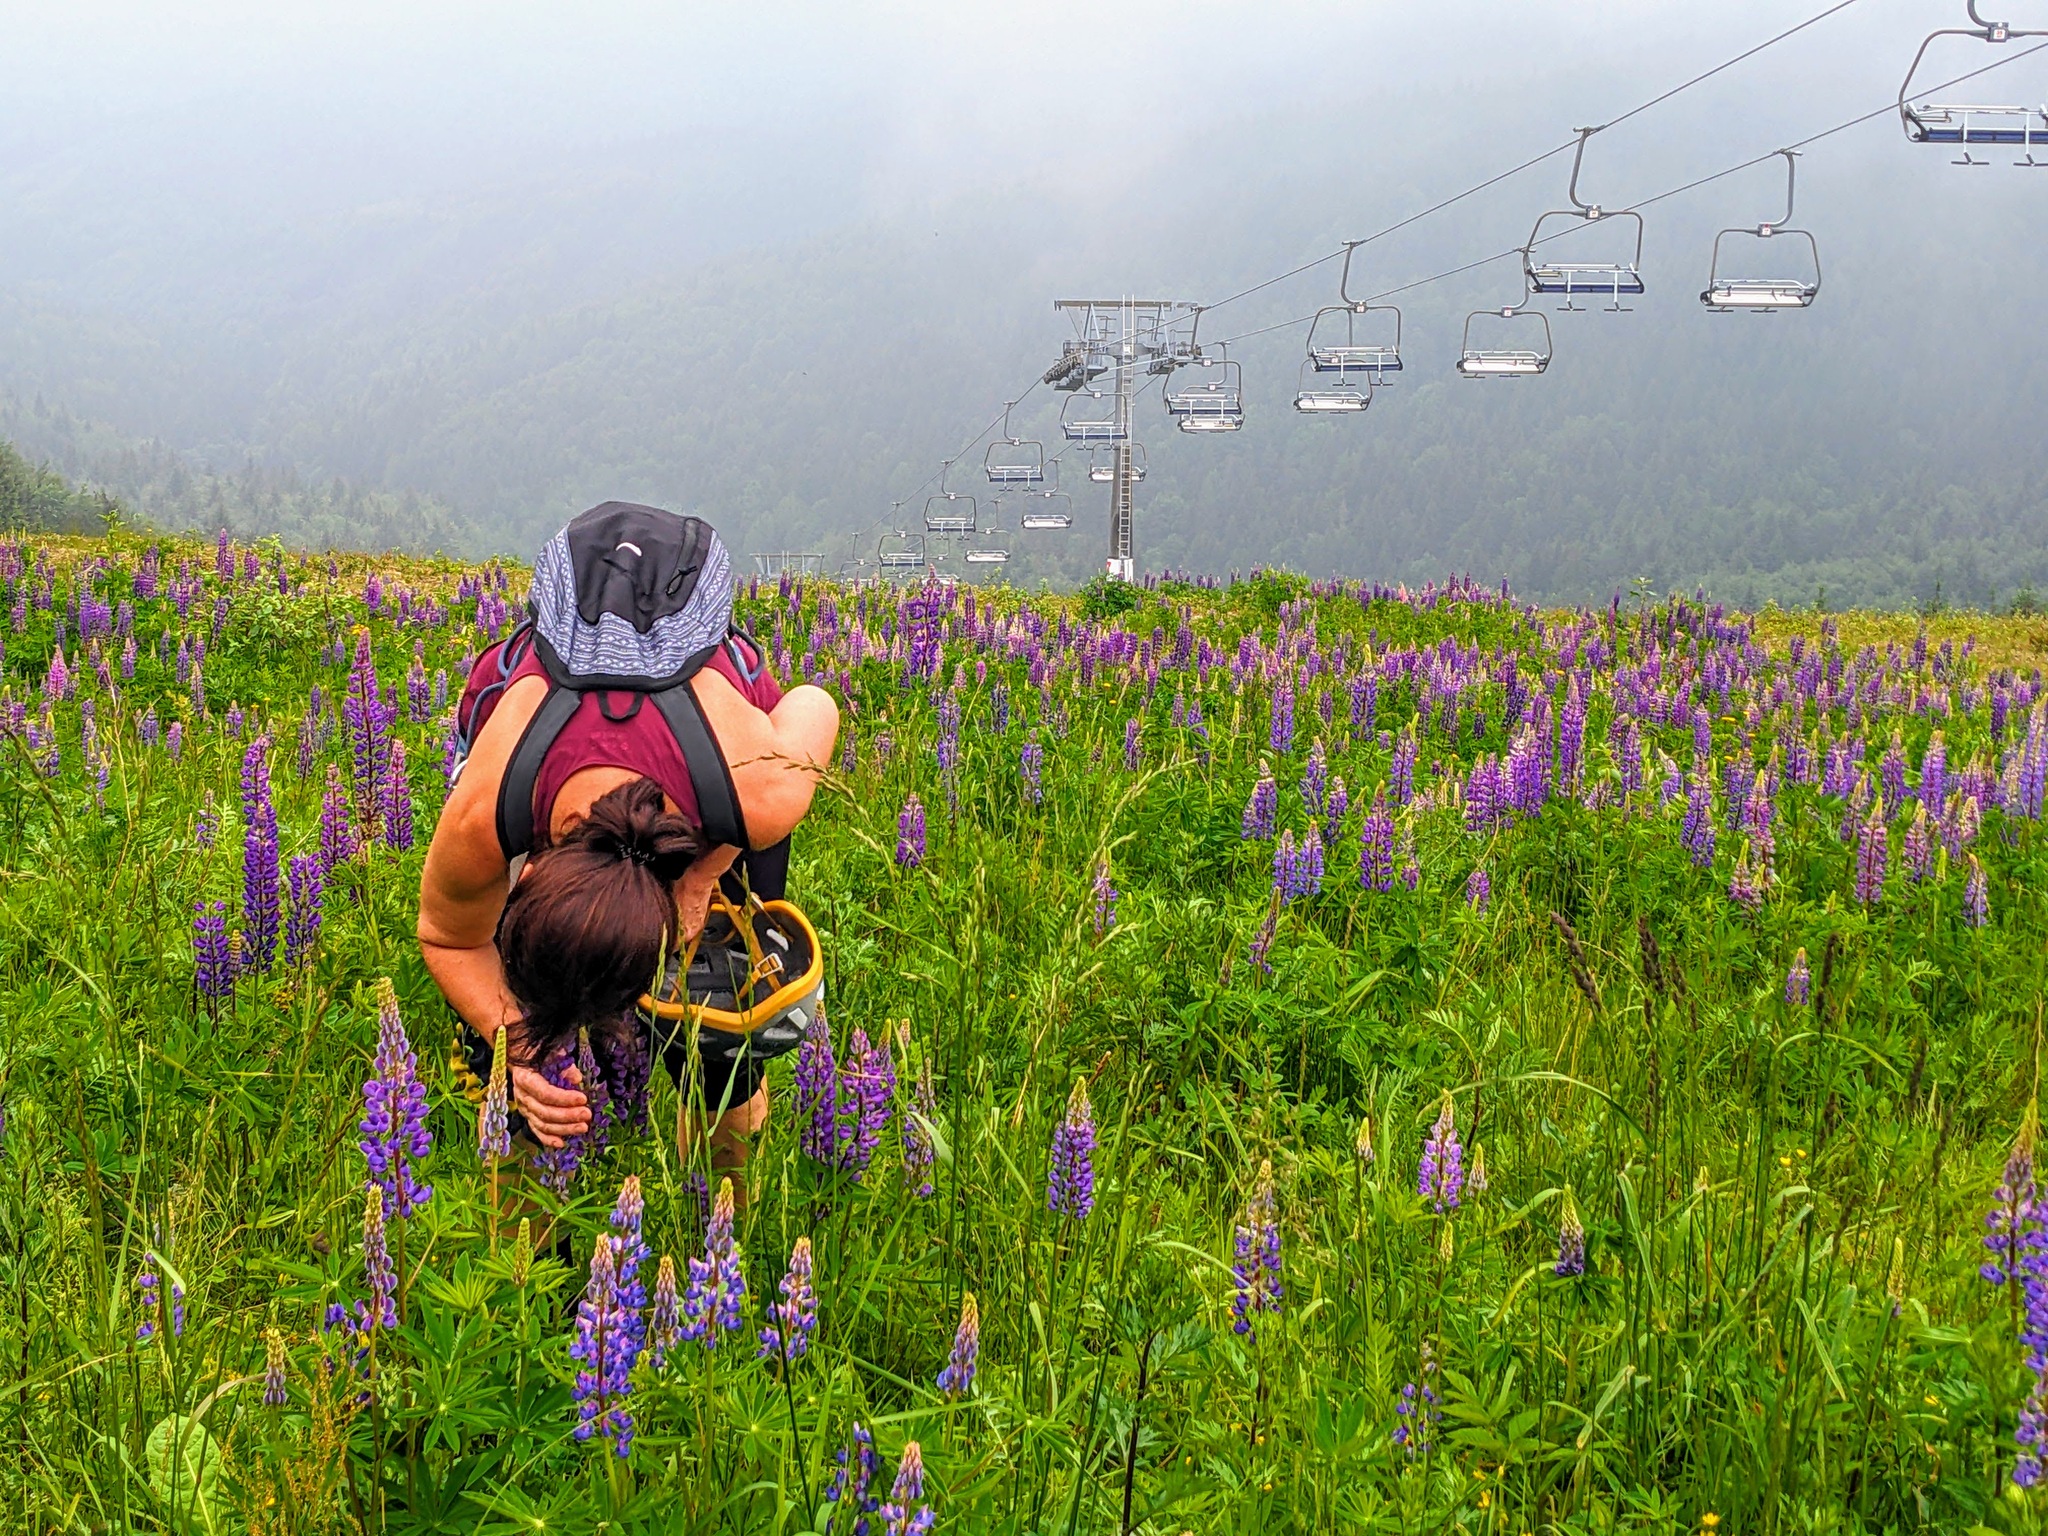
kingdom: Plantae
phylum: Tracheophyta
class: Magnoliopsida
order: Fabales
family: Fabaceae
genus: Lupinus
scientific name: Lupinus polyphyllus
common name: Garden lupin
